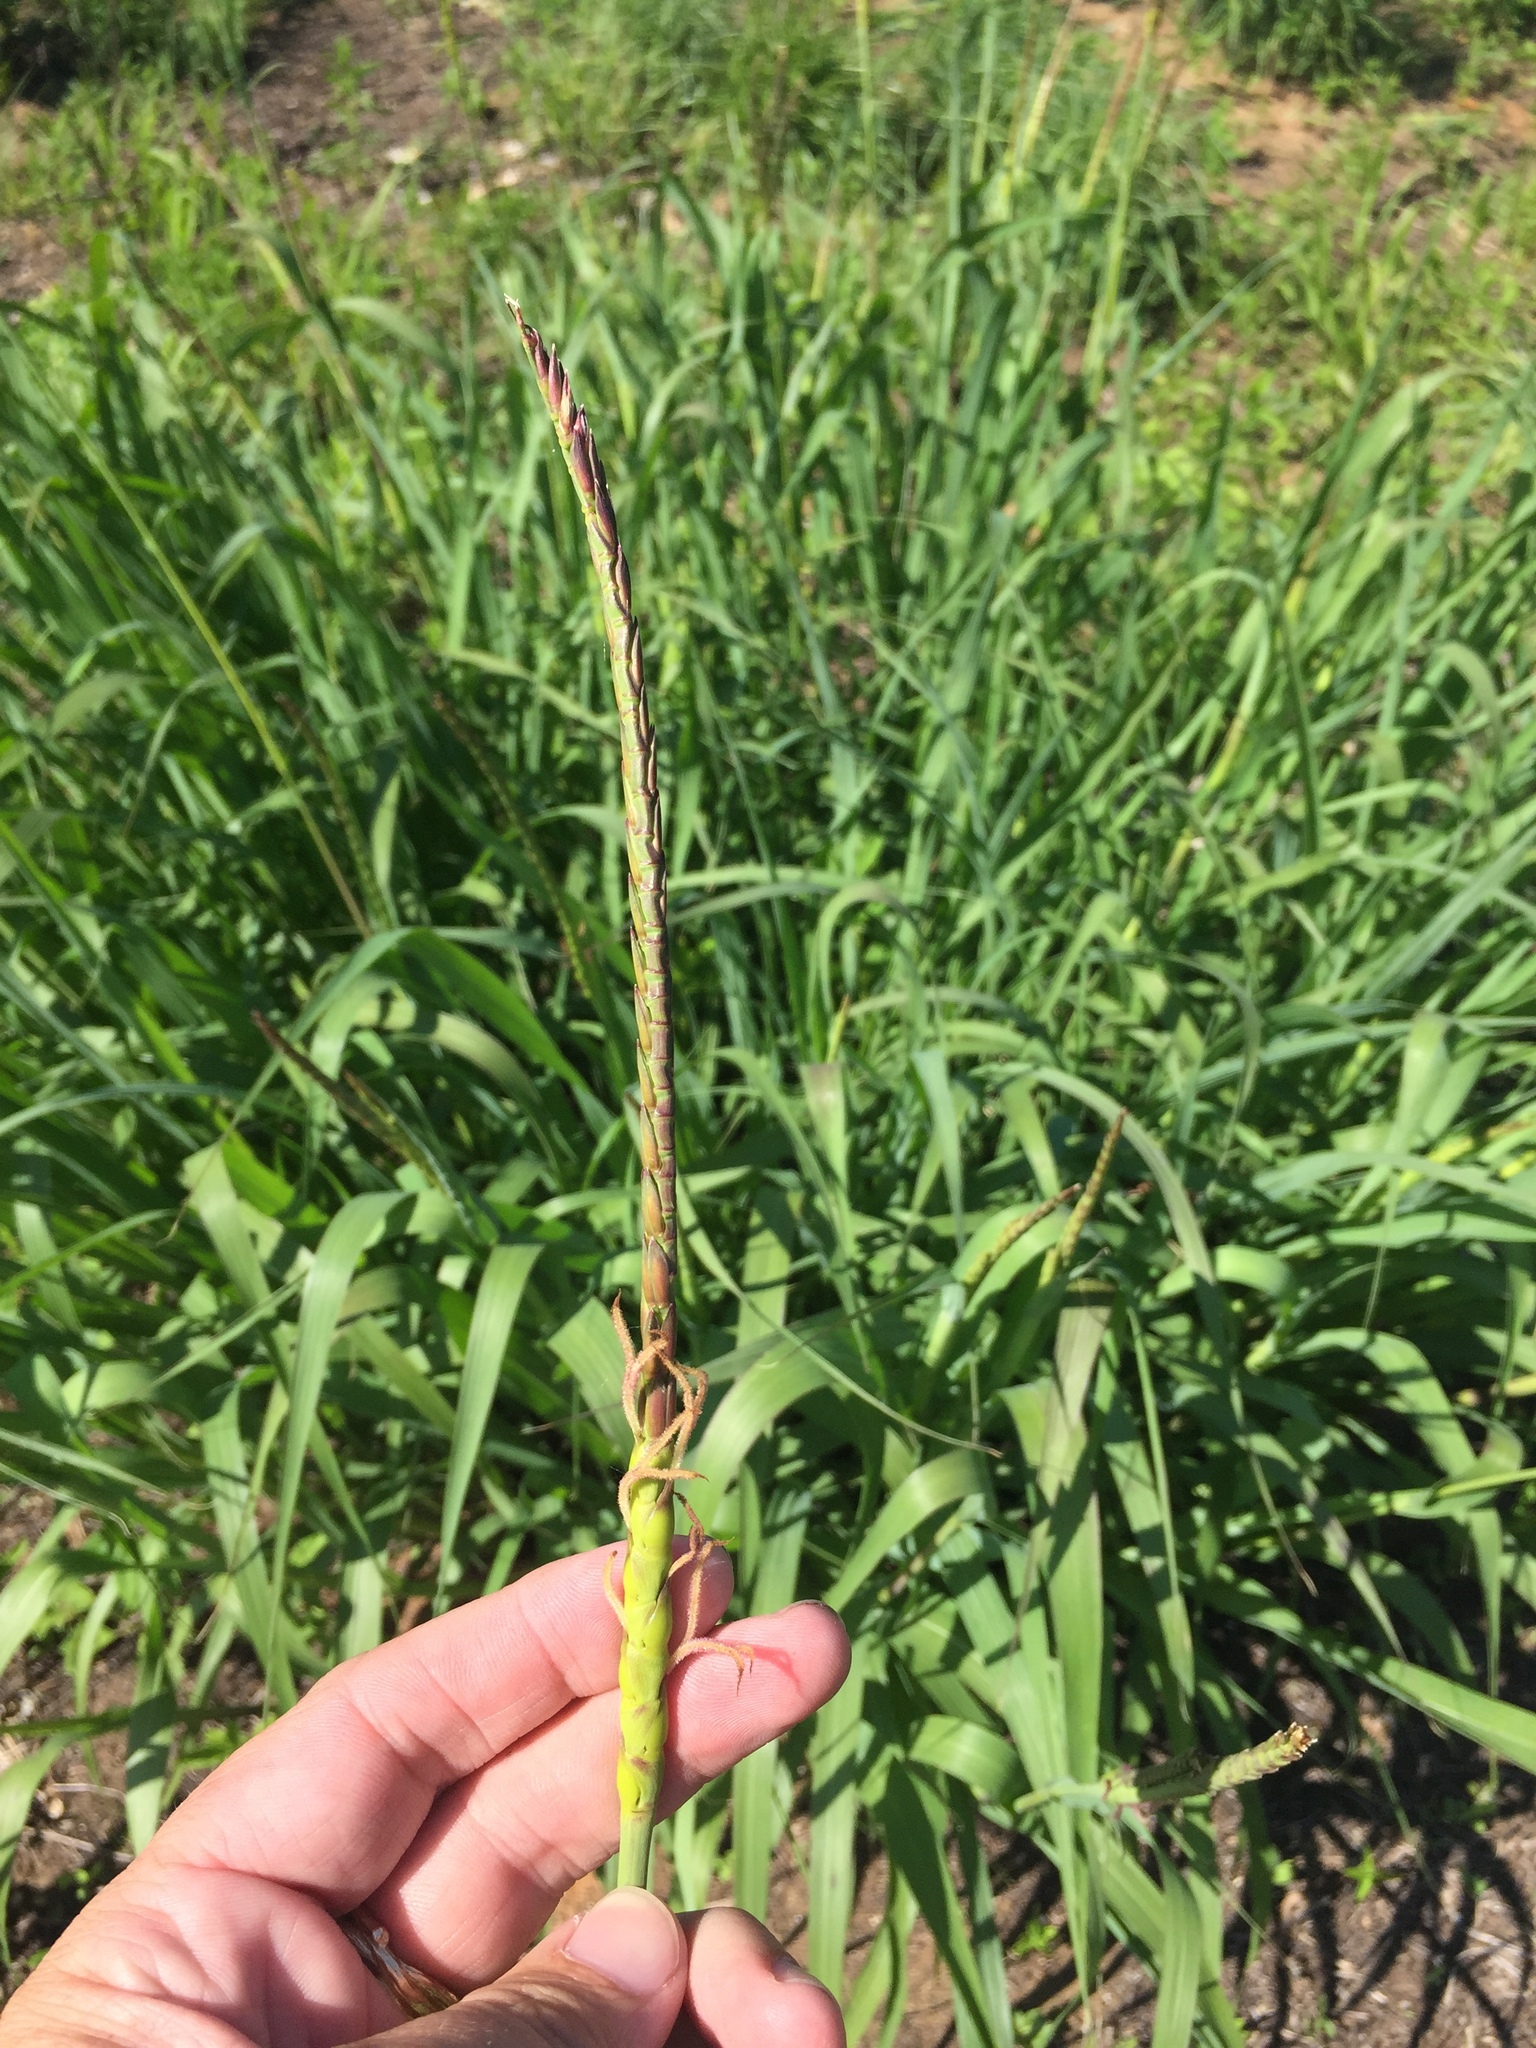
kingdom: Plantae
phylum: Tracheophyta
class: Liliopsida
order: Poales
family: Poaceae
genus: Tripsacum
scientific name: Tripsacum dactyloides
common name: Buffalo-grass
